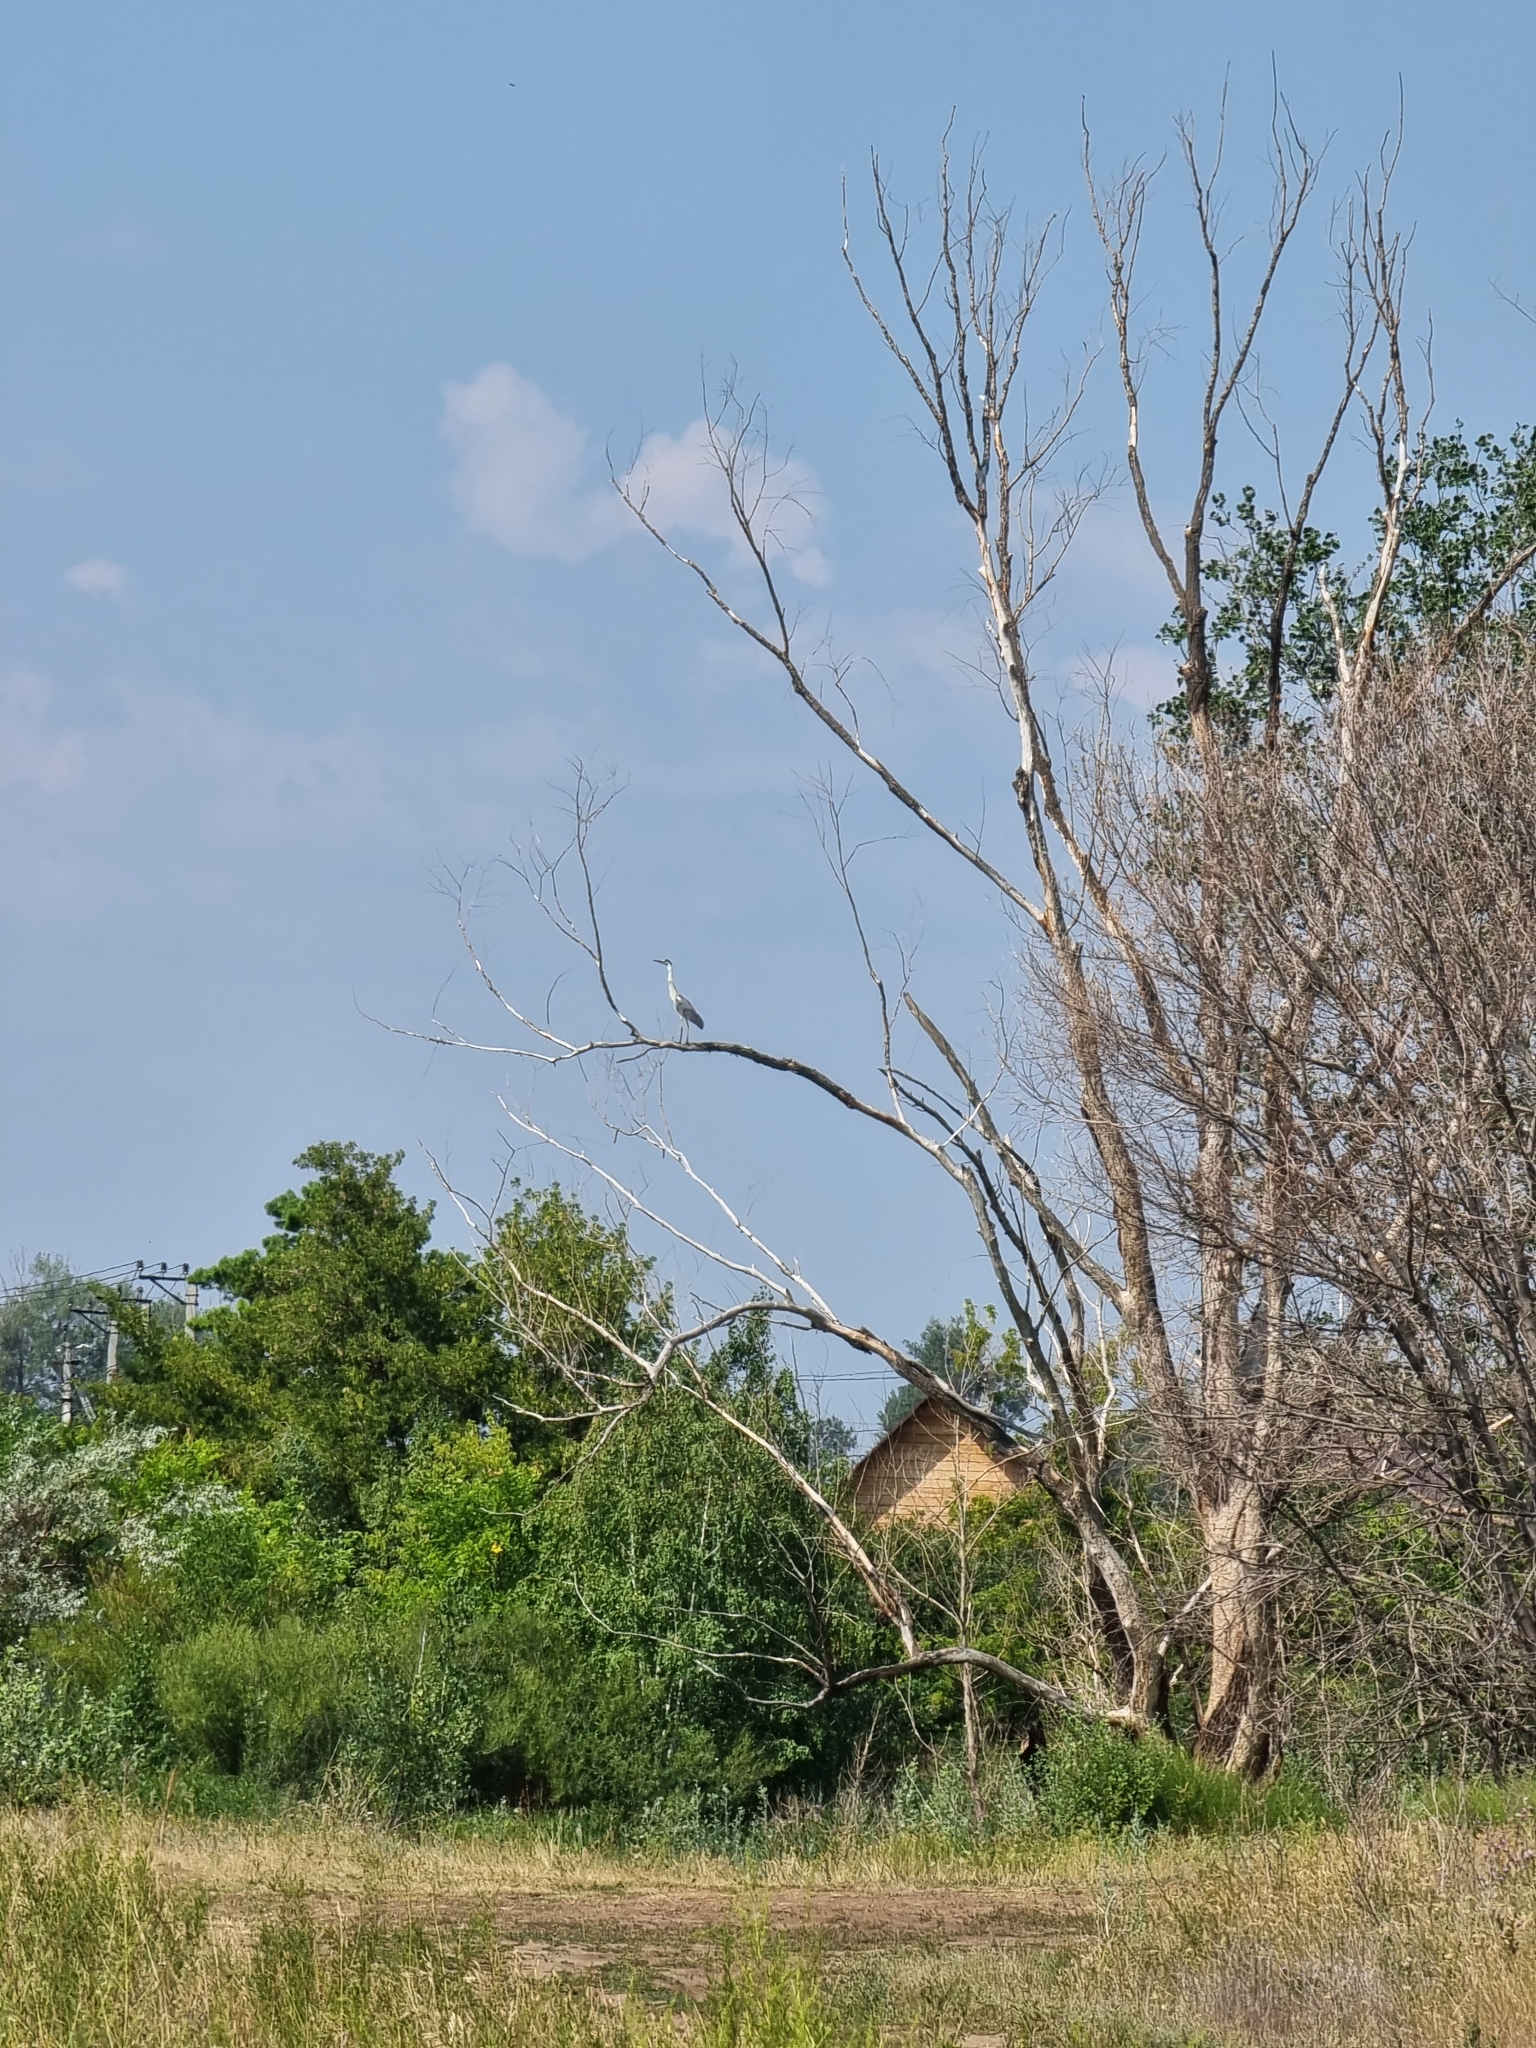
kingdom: Animalia
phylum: Chordata
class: Aves
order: Pelecaniformes
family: Ardeidae
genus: Ardea
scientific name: Ardea cinerea
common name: Grey heron
